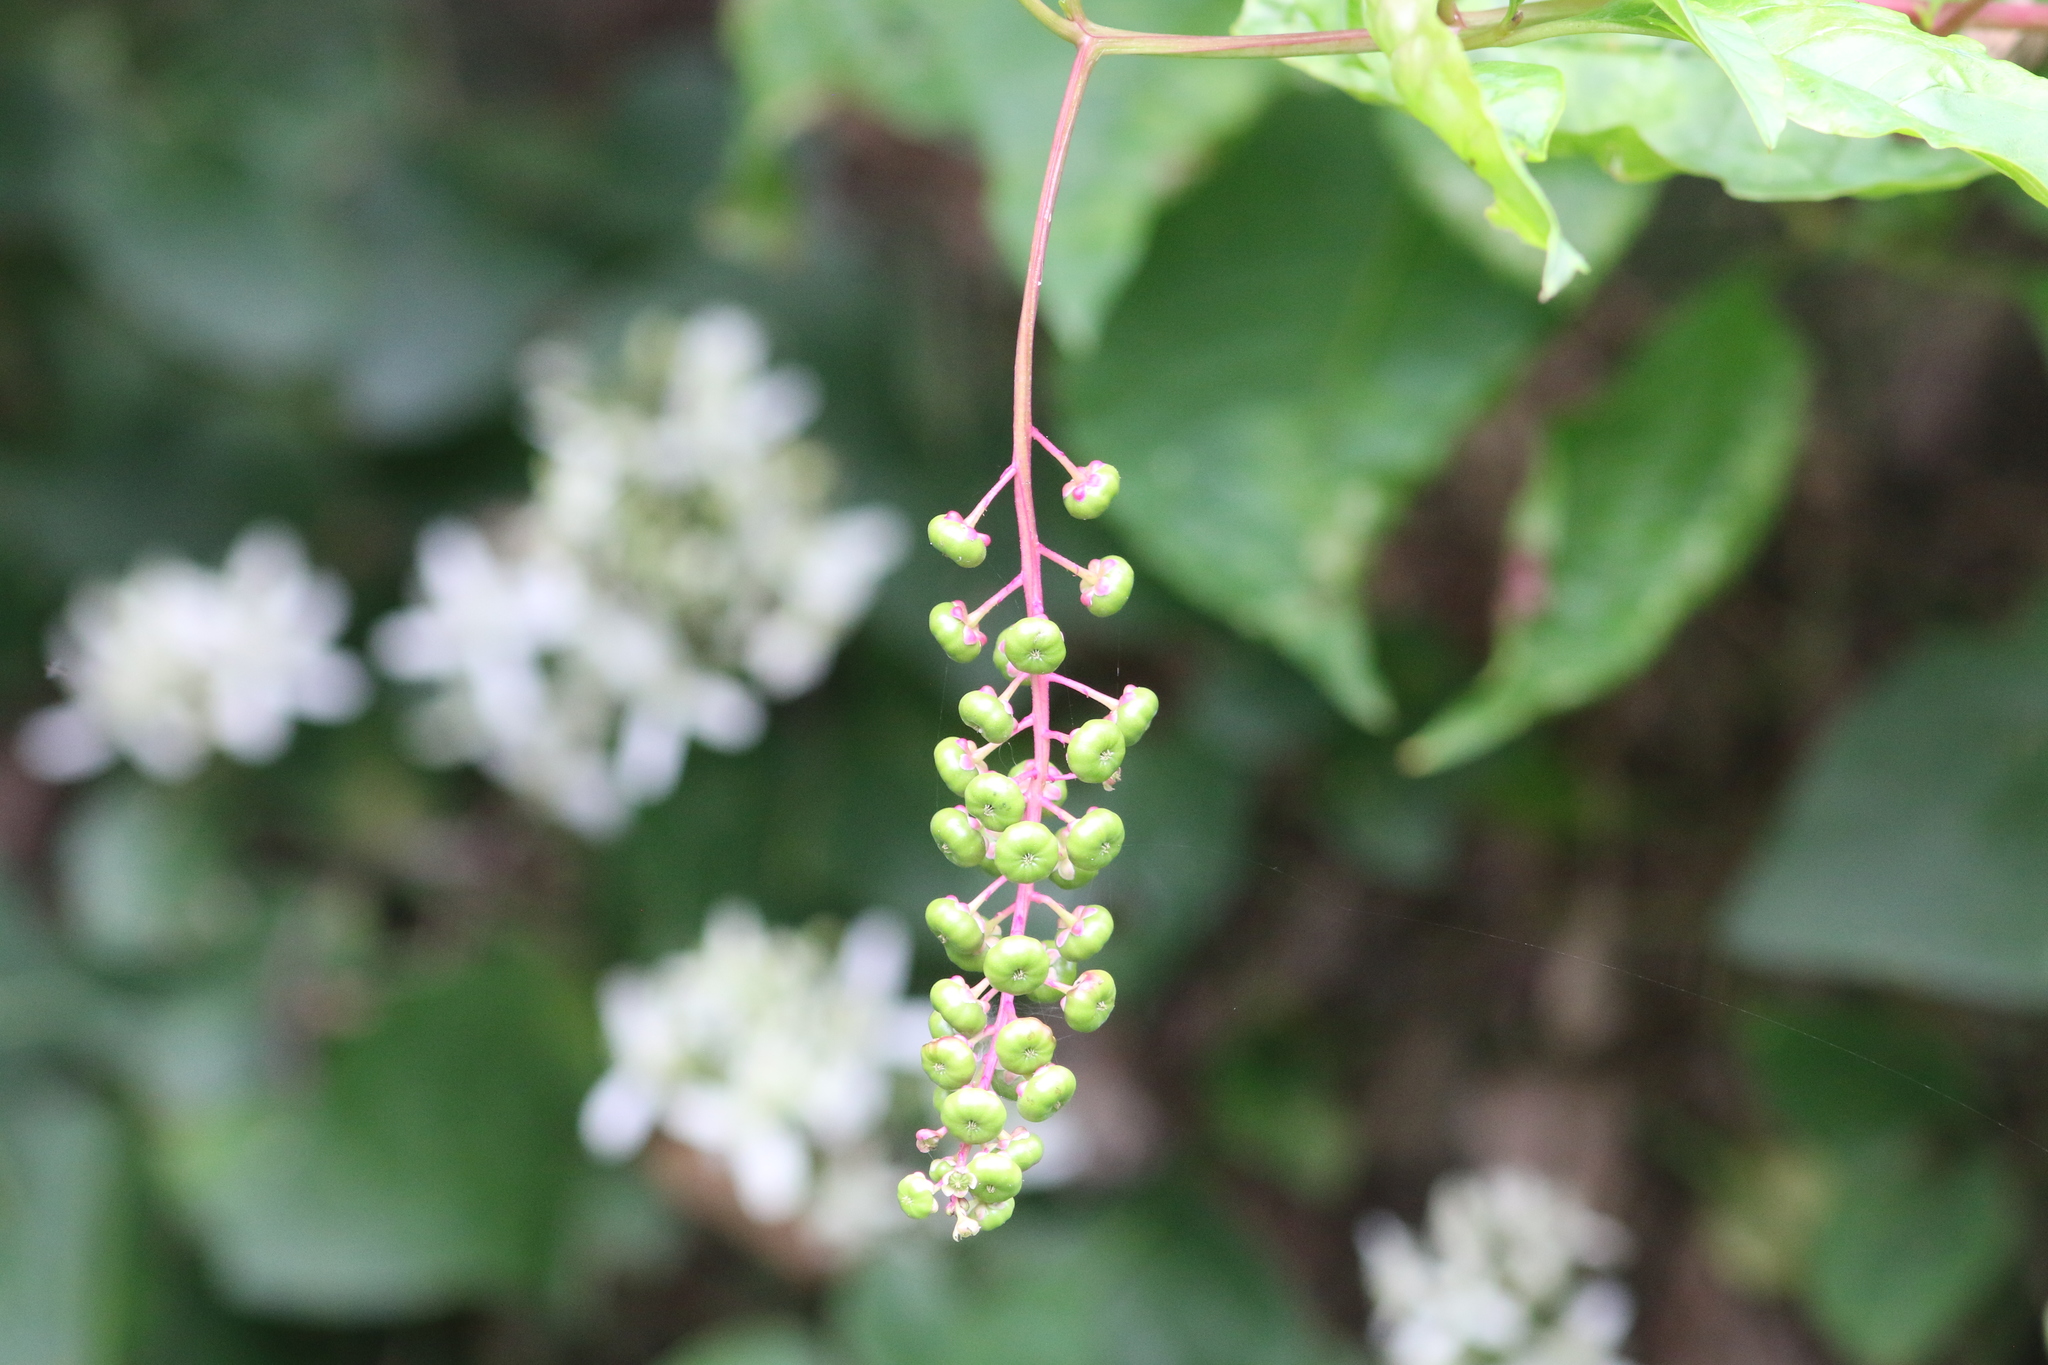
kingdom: Plantae
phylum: Tracheophyta
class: Magnoliopsida
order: Caryophyllales
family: Phytolaccaceae
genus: Phytolacca
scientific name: Phytolacca americana
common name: American pokeweed
